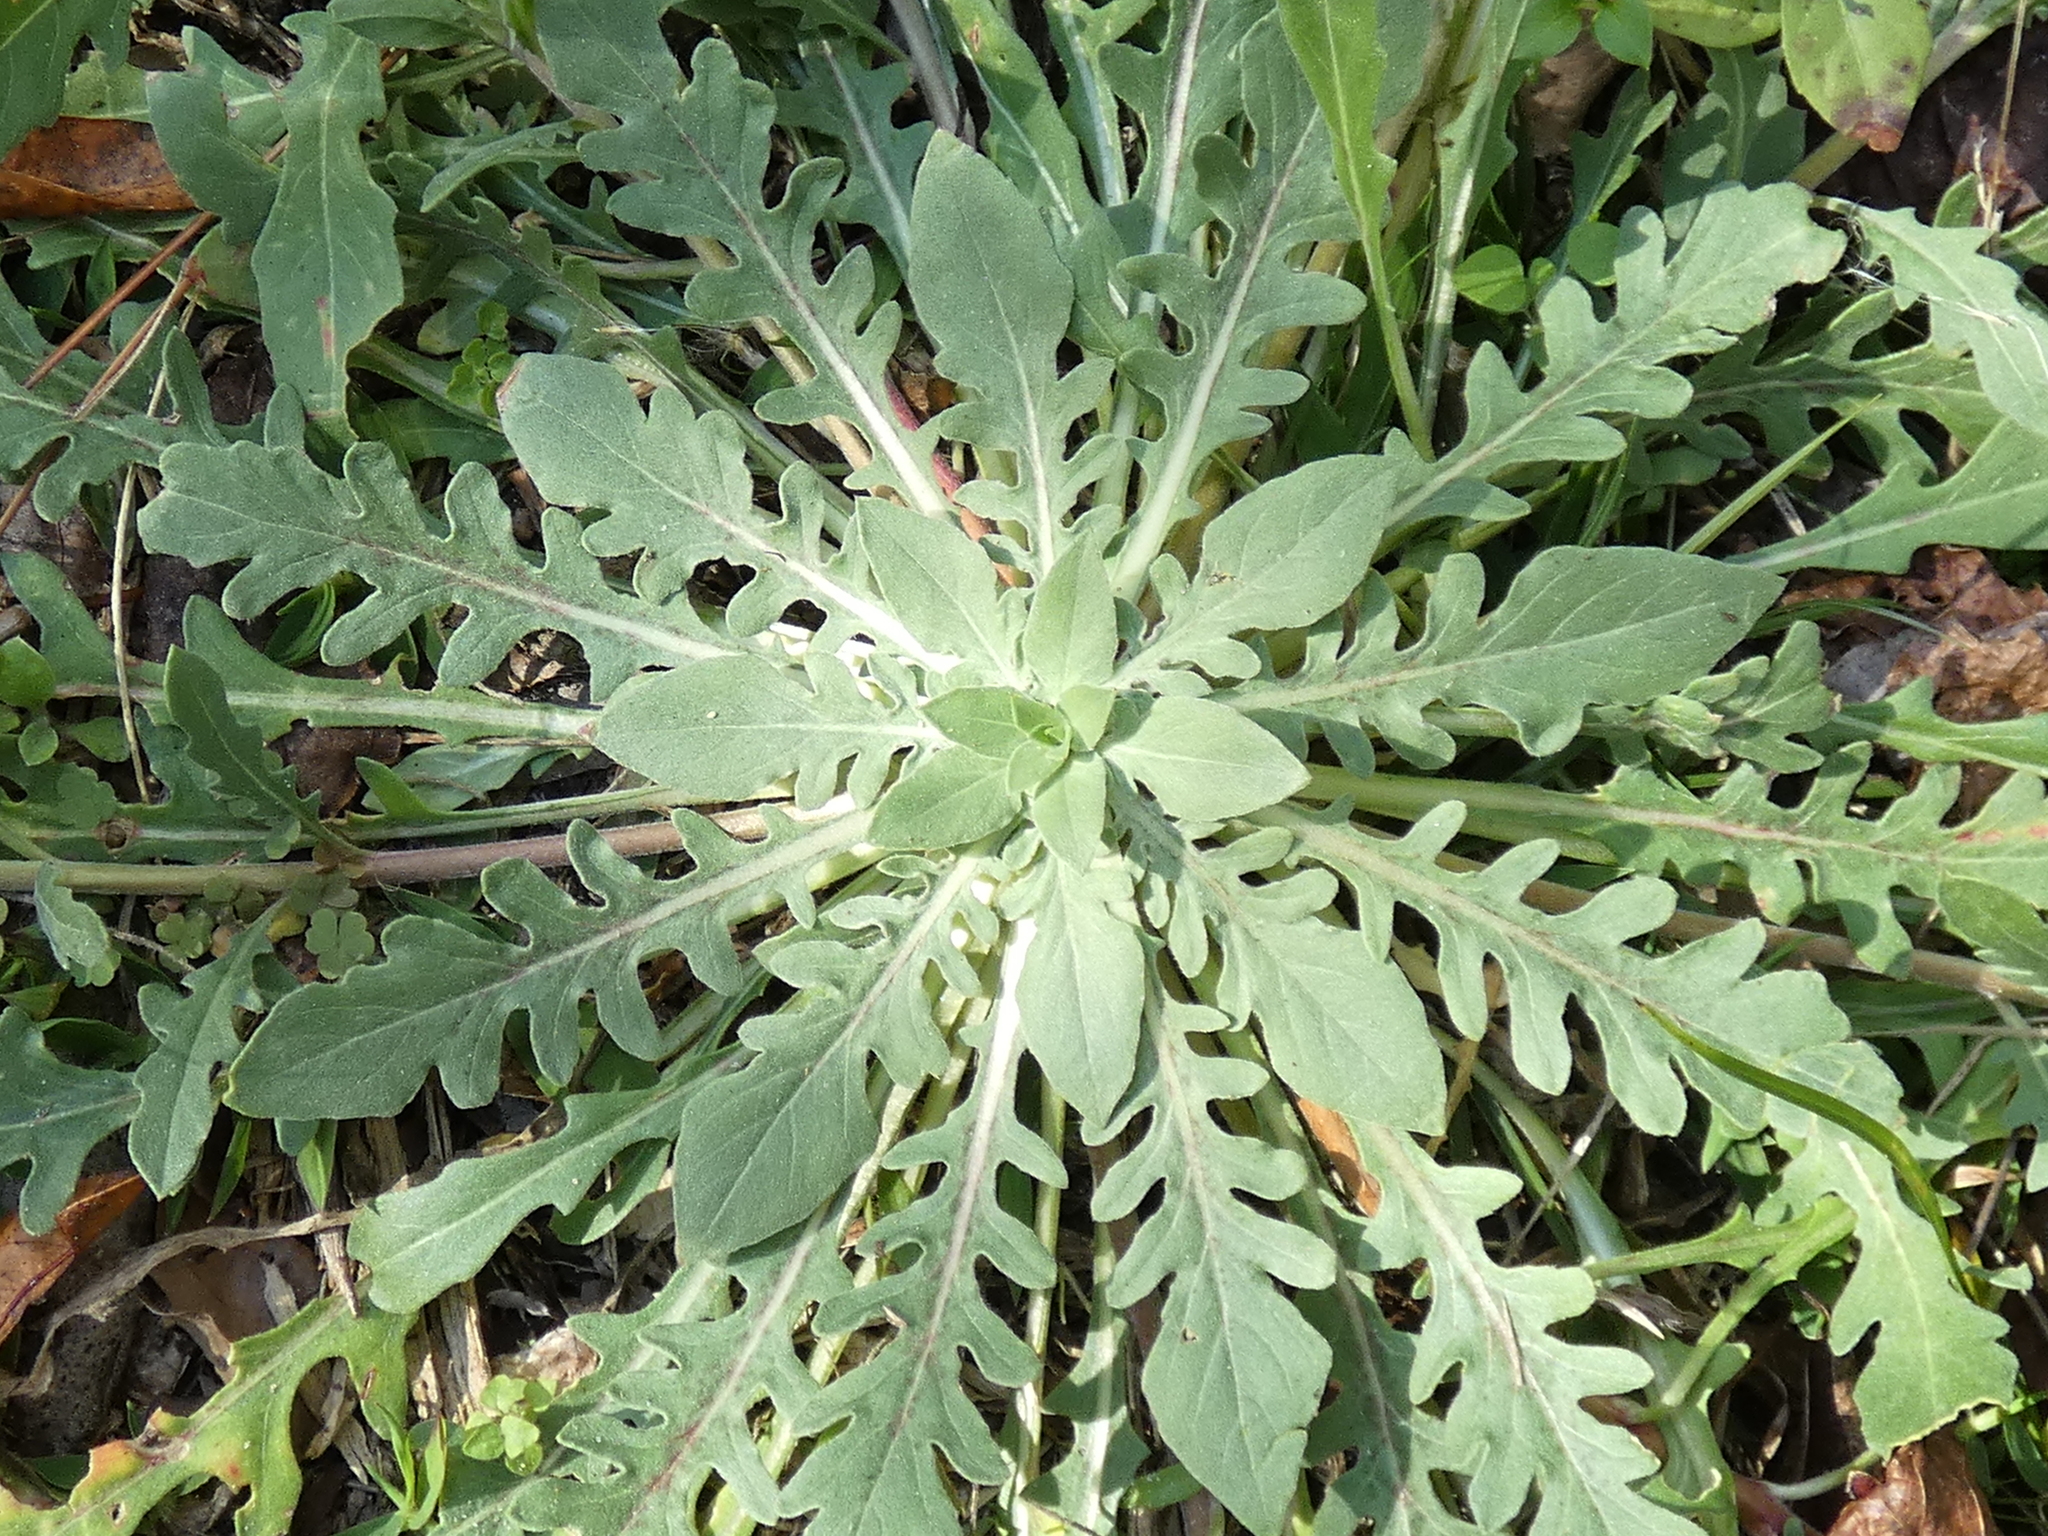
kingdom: Plantae
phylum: Tracheophyta
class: Magnoliopsida
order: Myrtales
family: Onagraceae
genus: Oenothera
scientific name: Oenothera laciniata
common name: Cut-leaved evening-primrose
